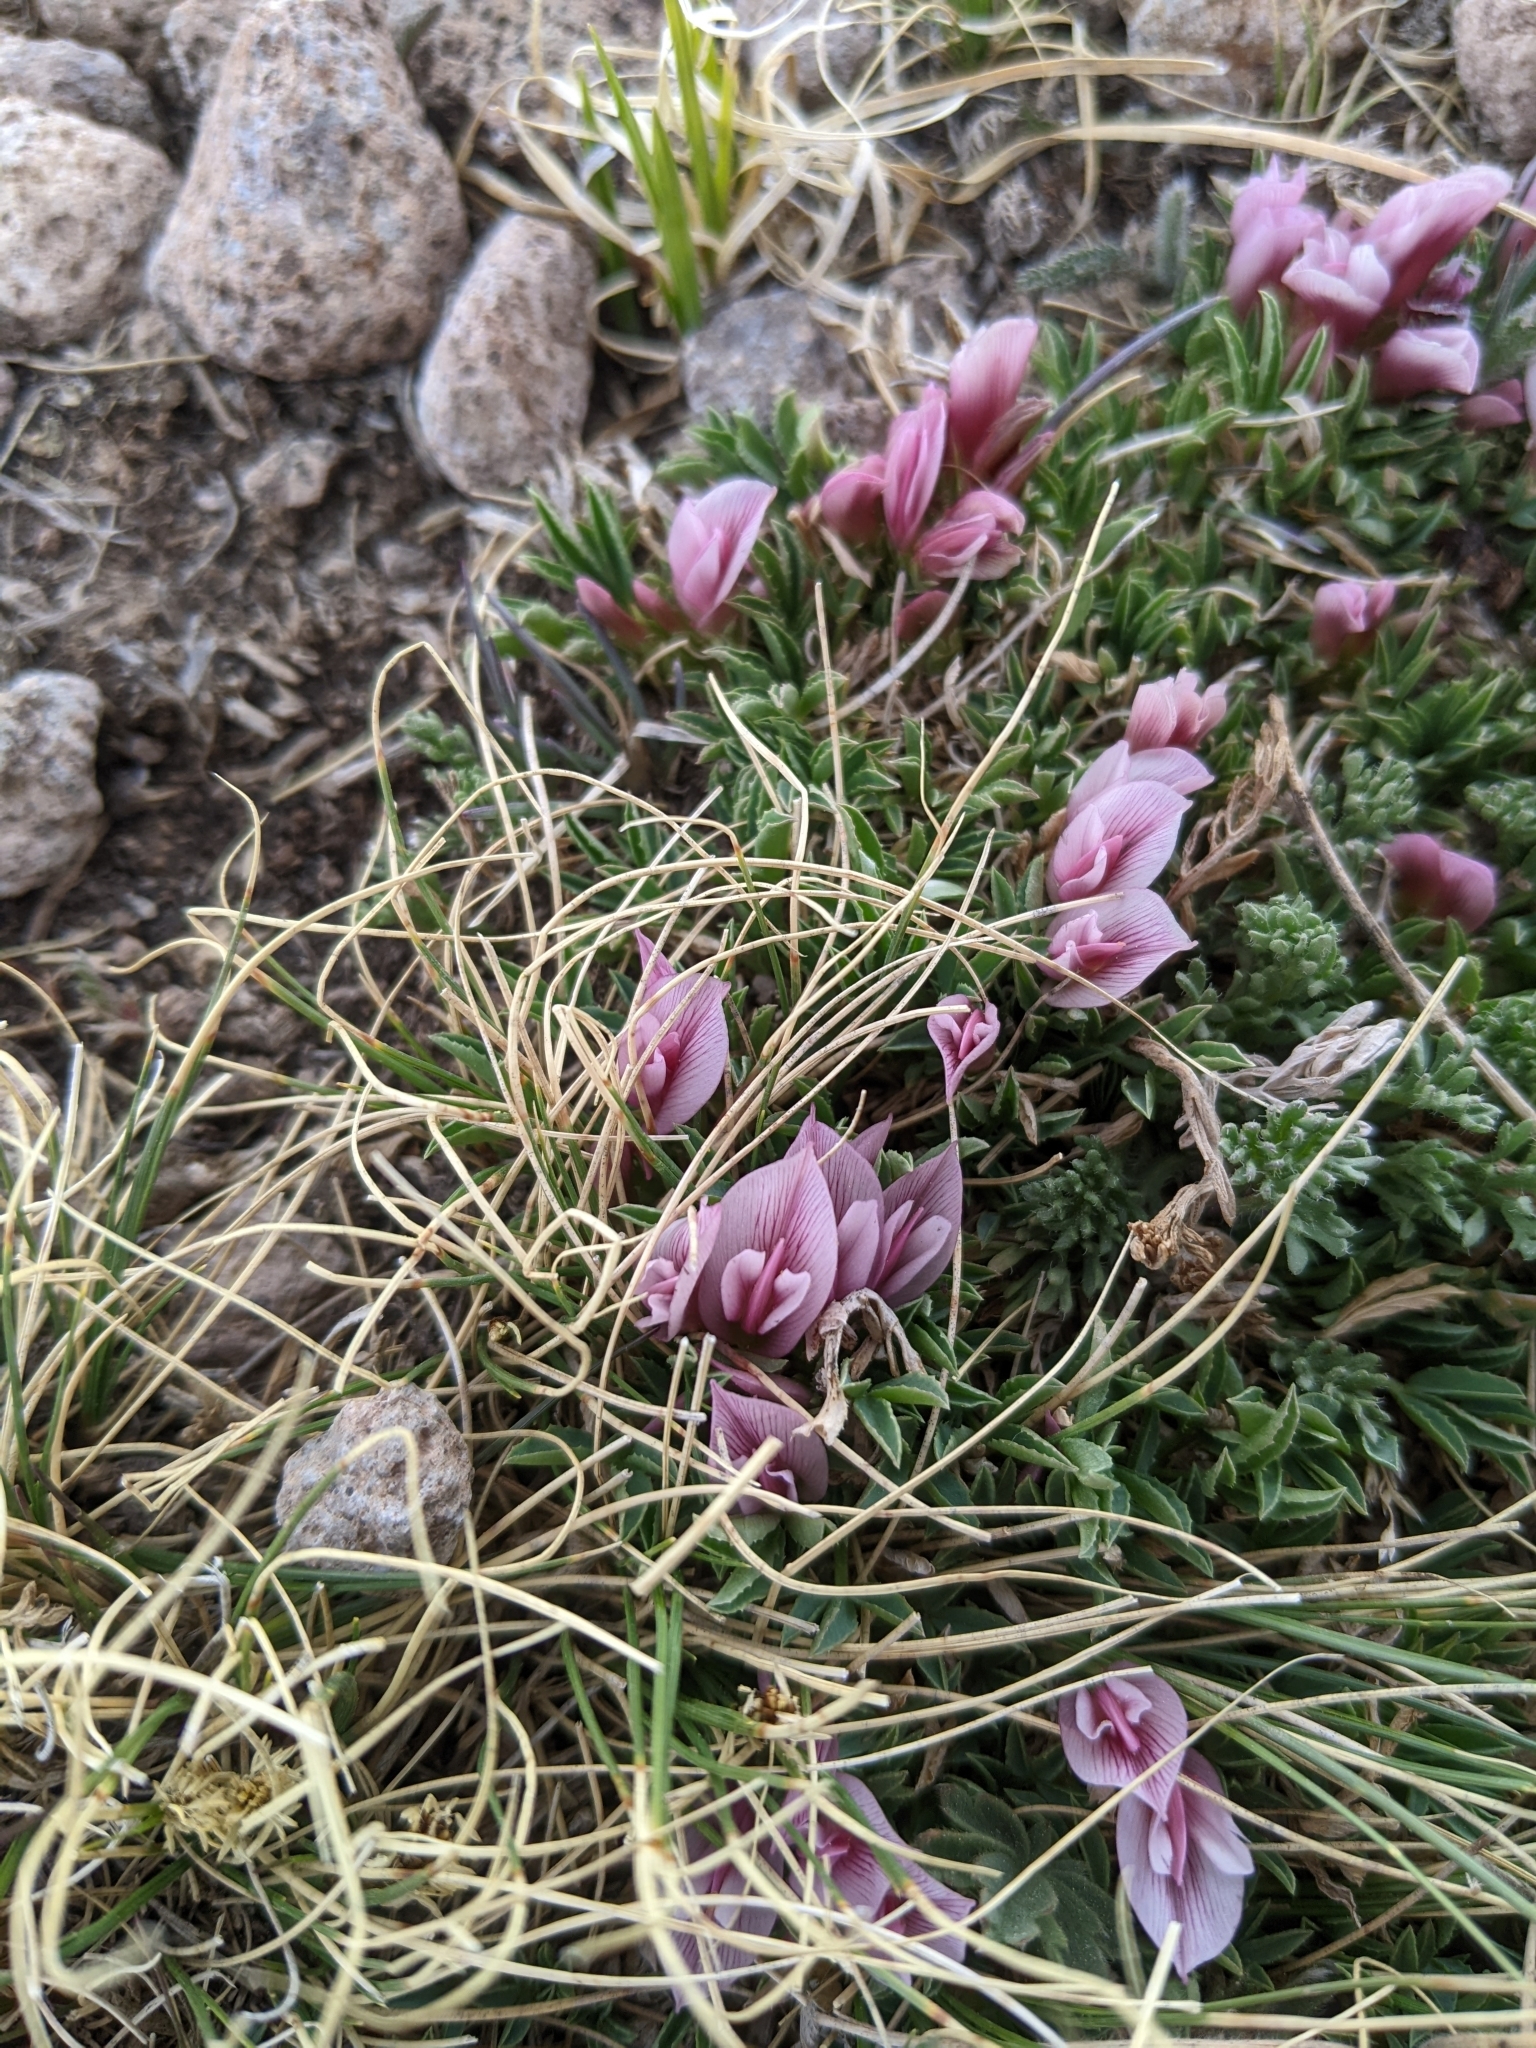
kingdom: Plantae
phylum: Tracheophyta
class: Magnoliopsida
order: Fabales
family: Fabaceae
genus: Trifolium
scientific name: Trifolium nanum
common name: Tundra clover
